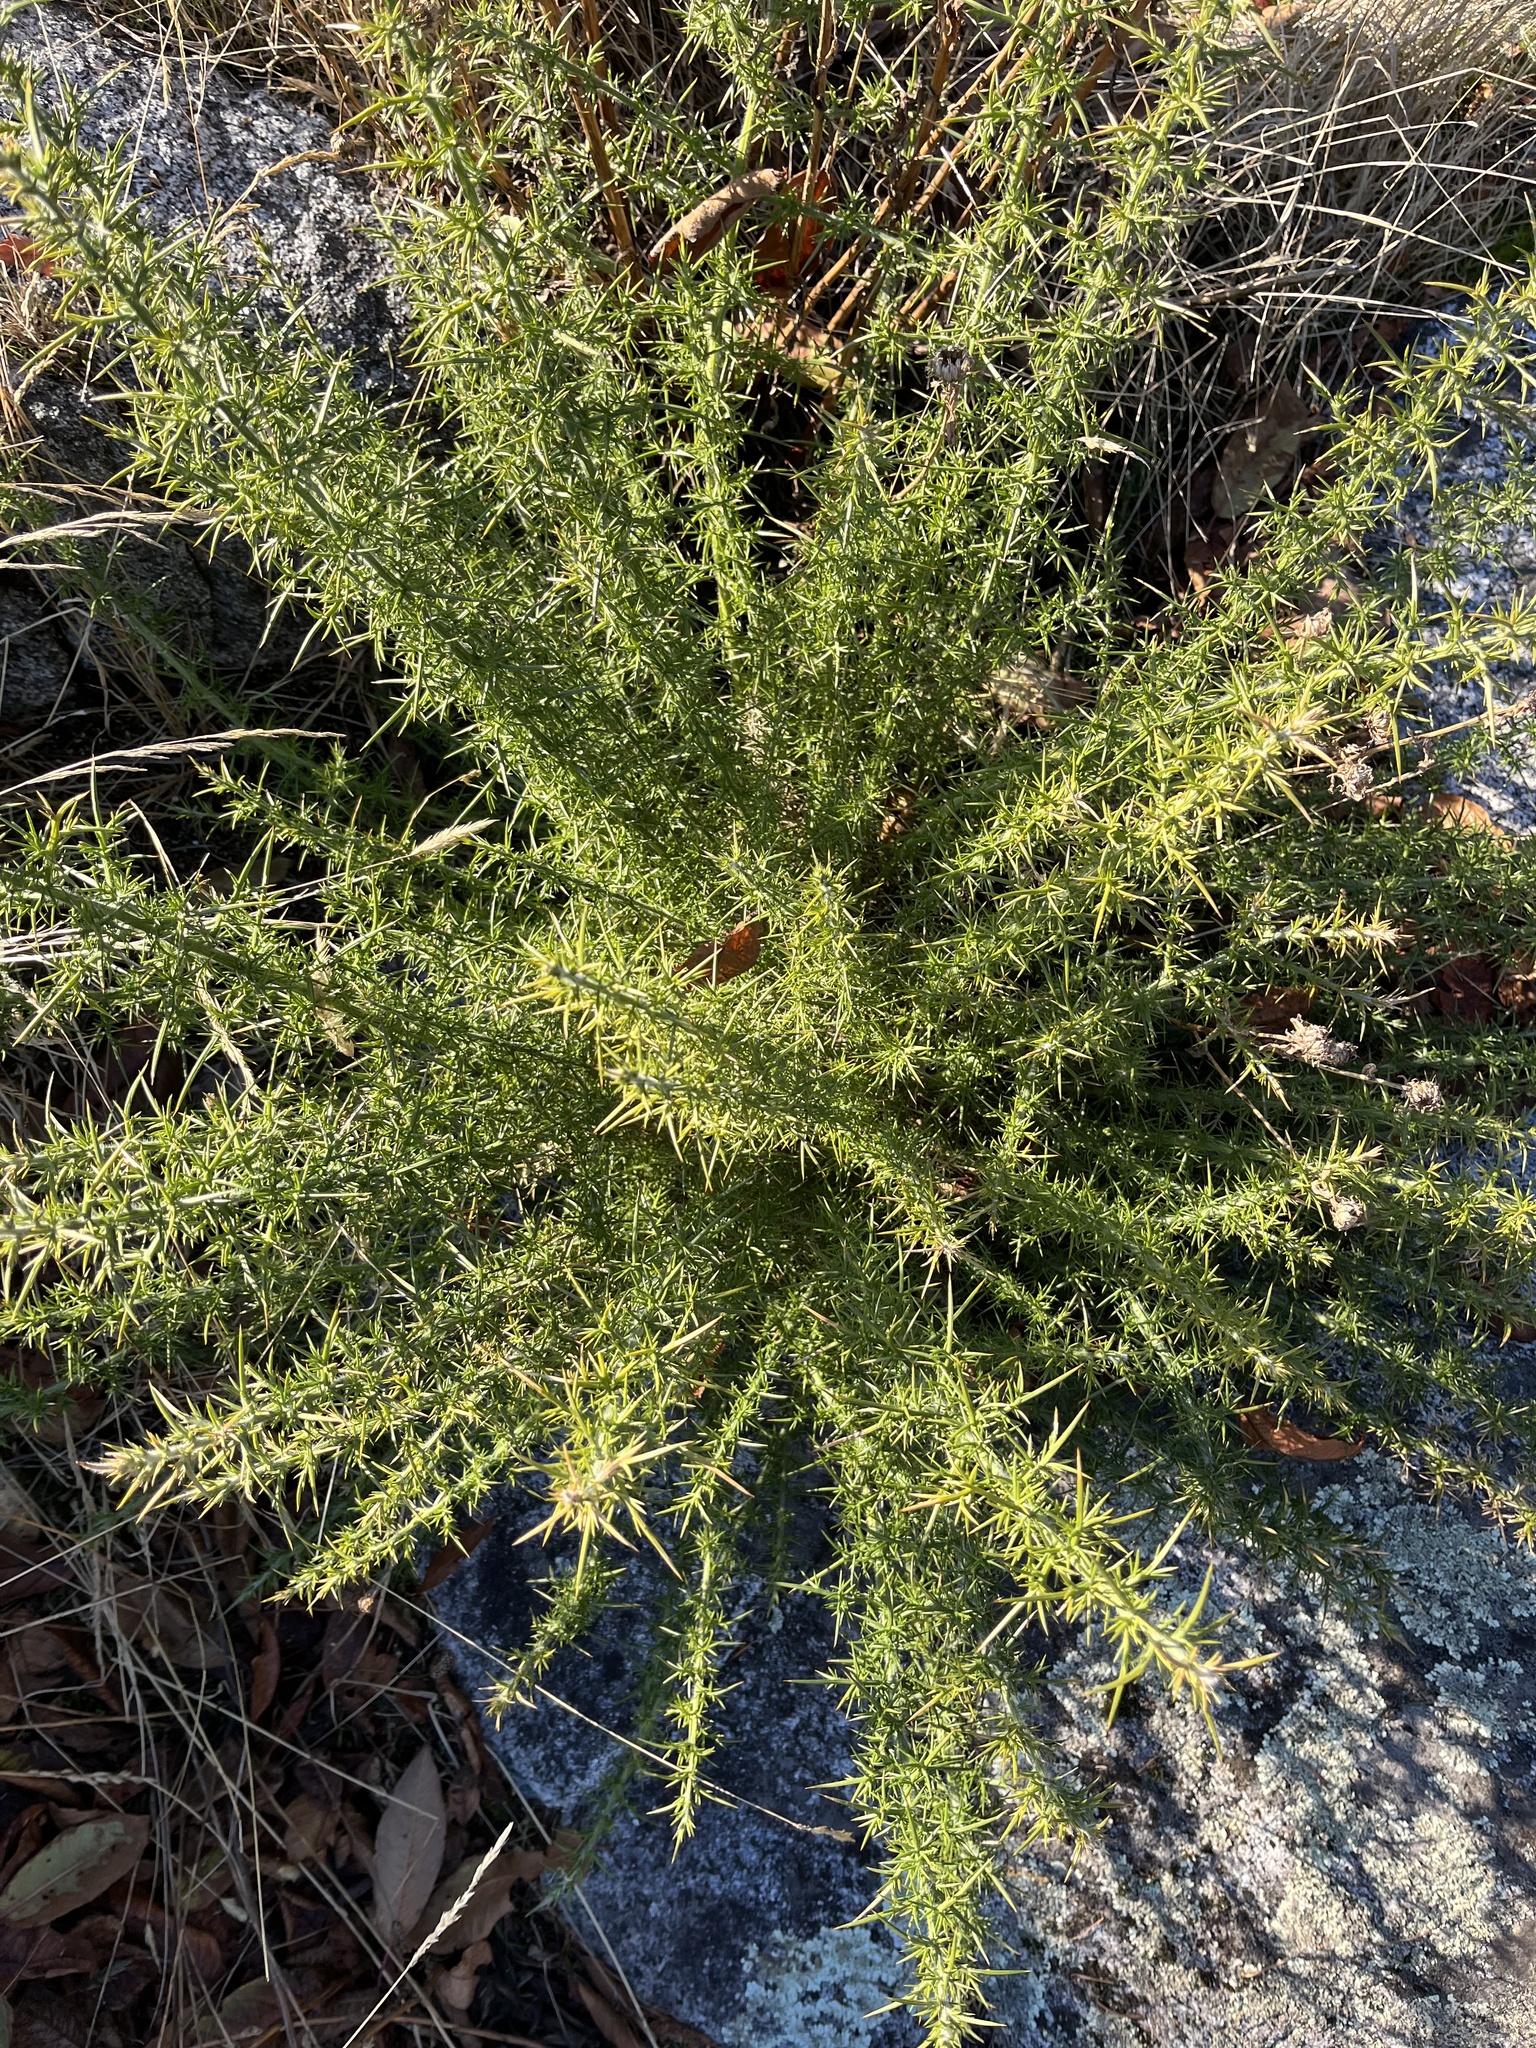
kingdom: Plantae
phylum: Tracheophyta
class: Magnoliopsida
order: Fabales
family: Fabaceae
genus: Ulex
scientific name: Ulex europaeus
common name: Common gorse
